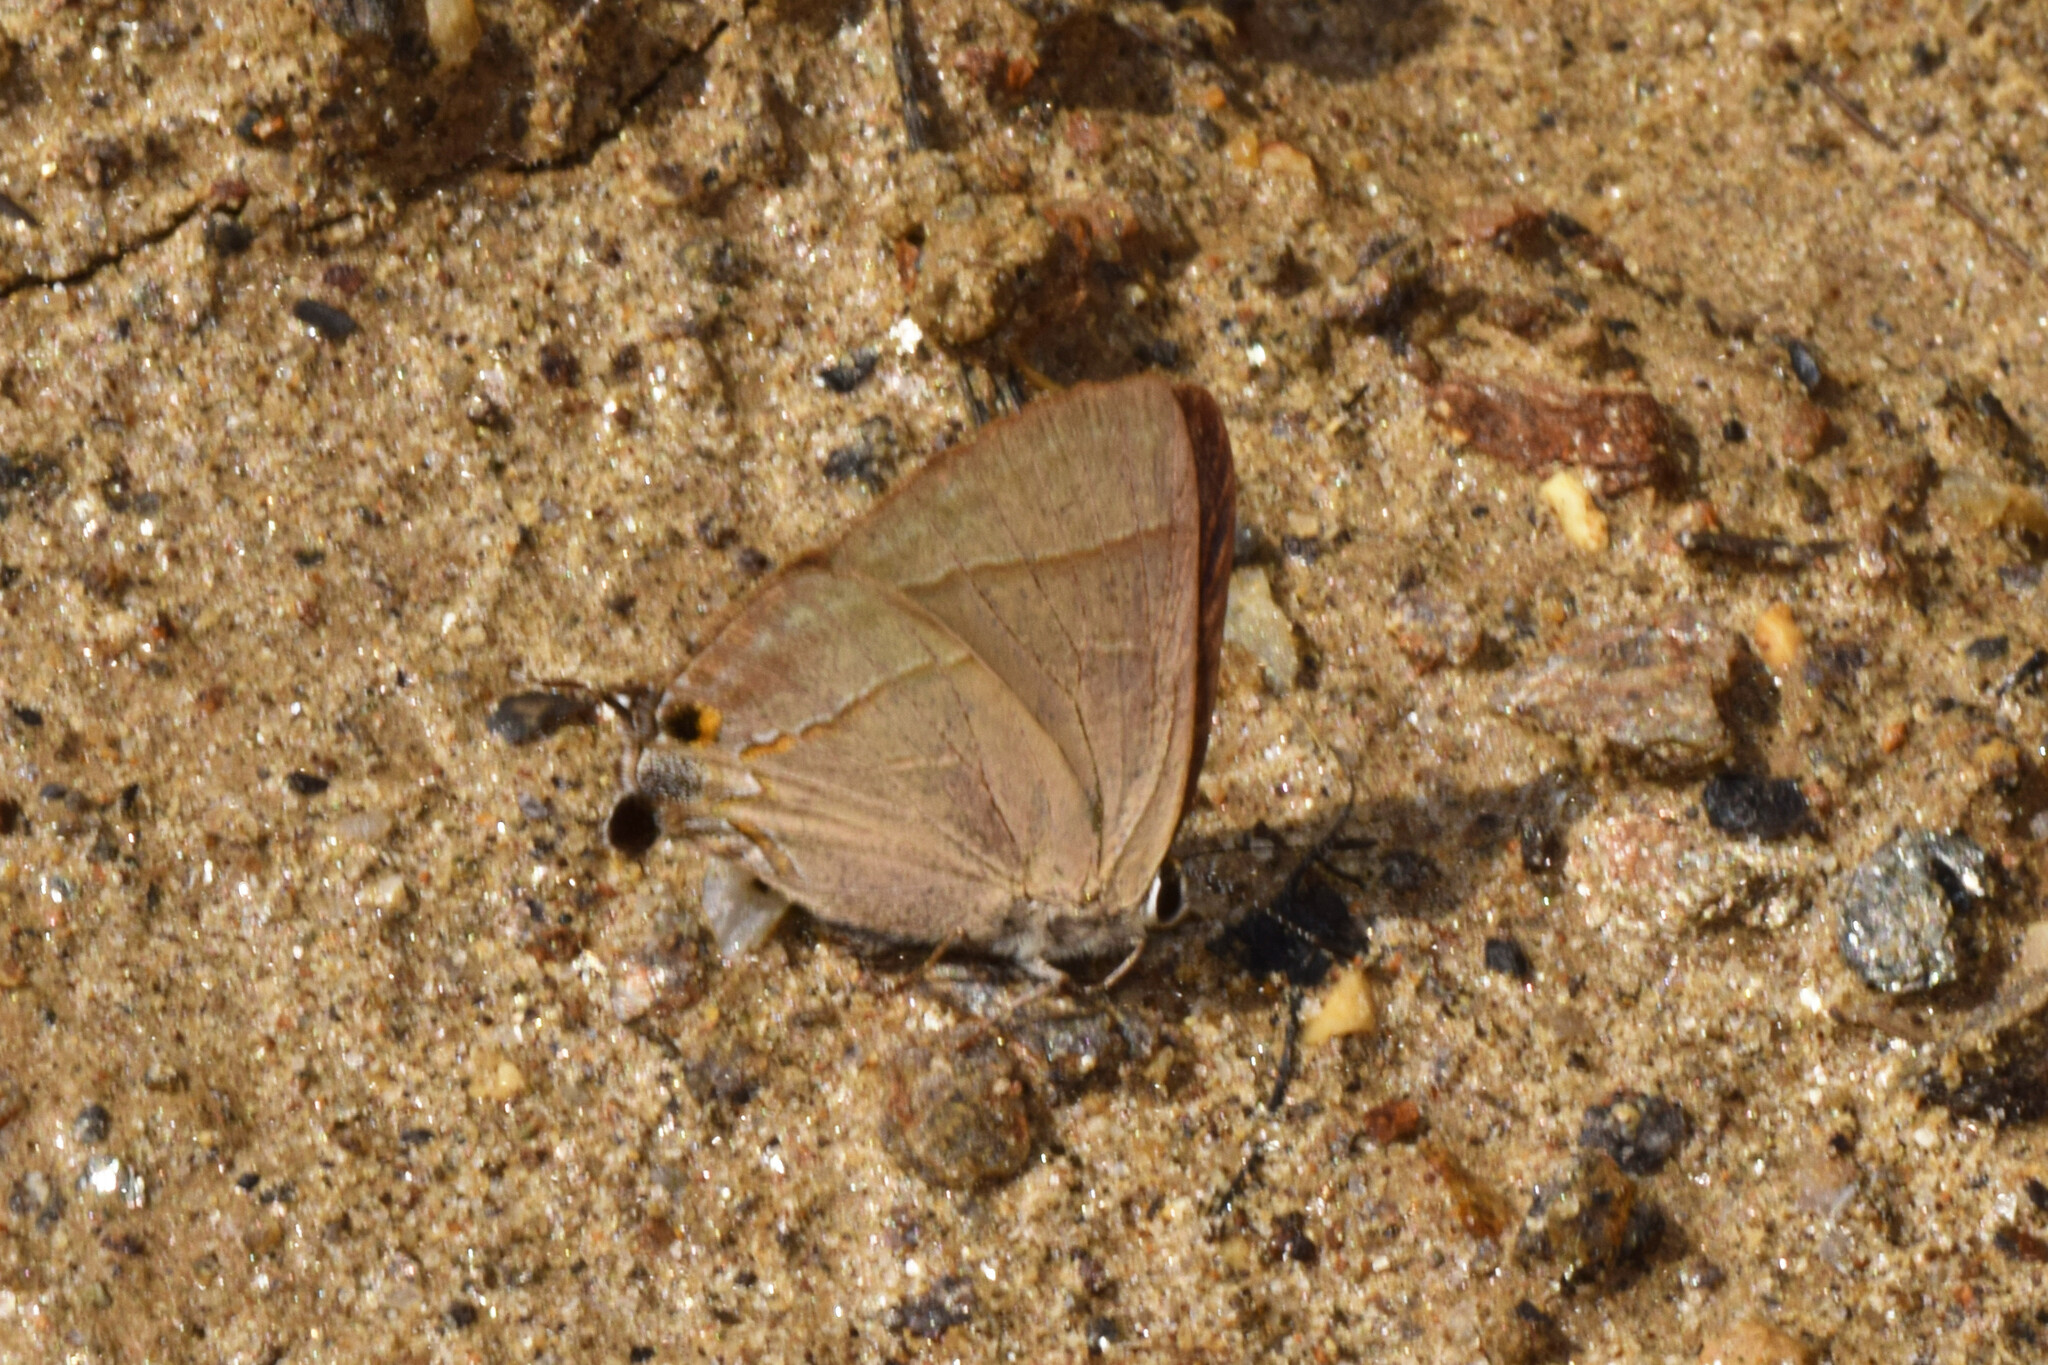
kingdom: Animalia
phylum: Arthropoda
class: Insecta
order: Lepidoptera
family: Lycaenidae
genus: Rapala
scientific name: Rapala nissa
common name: Common flash
